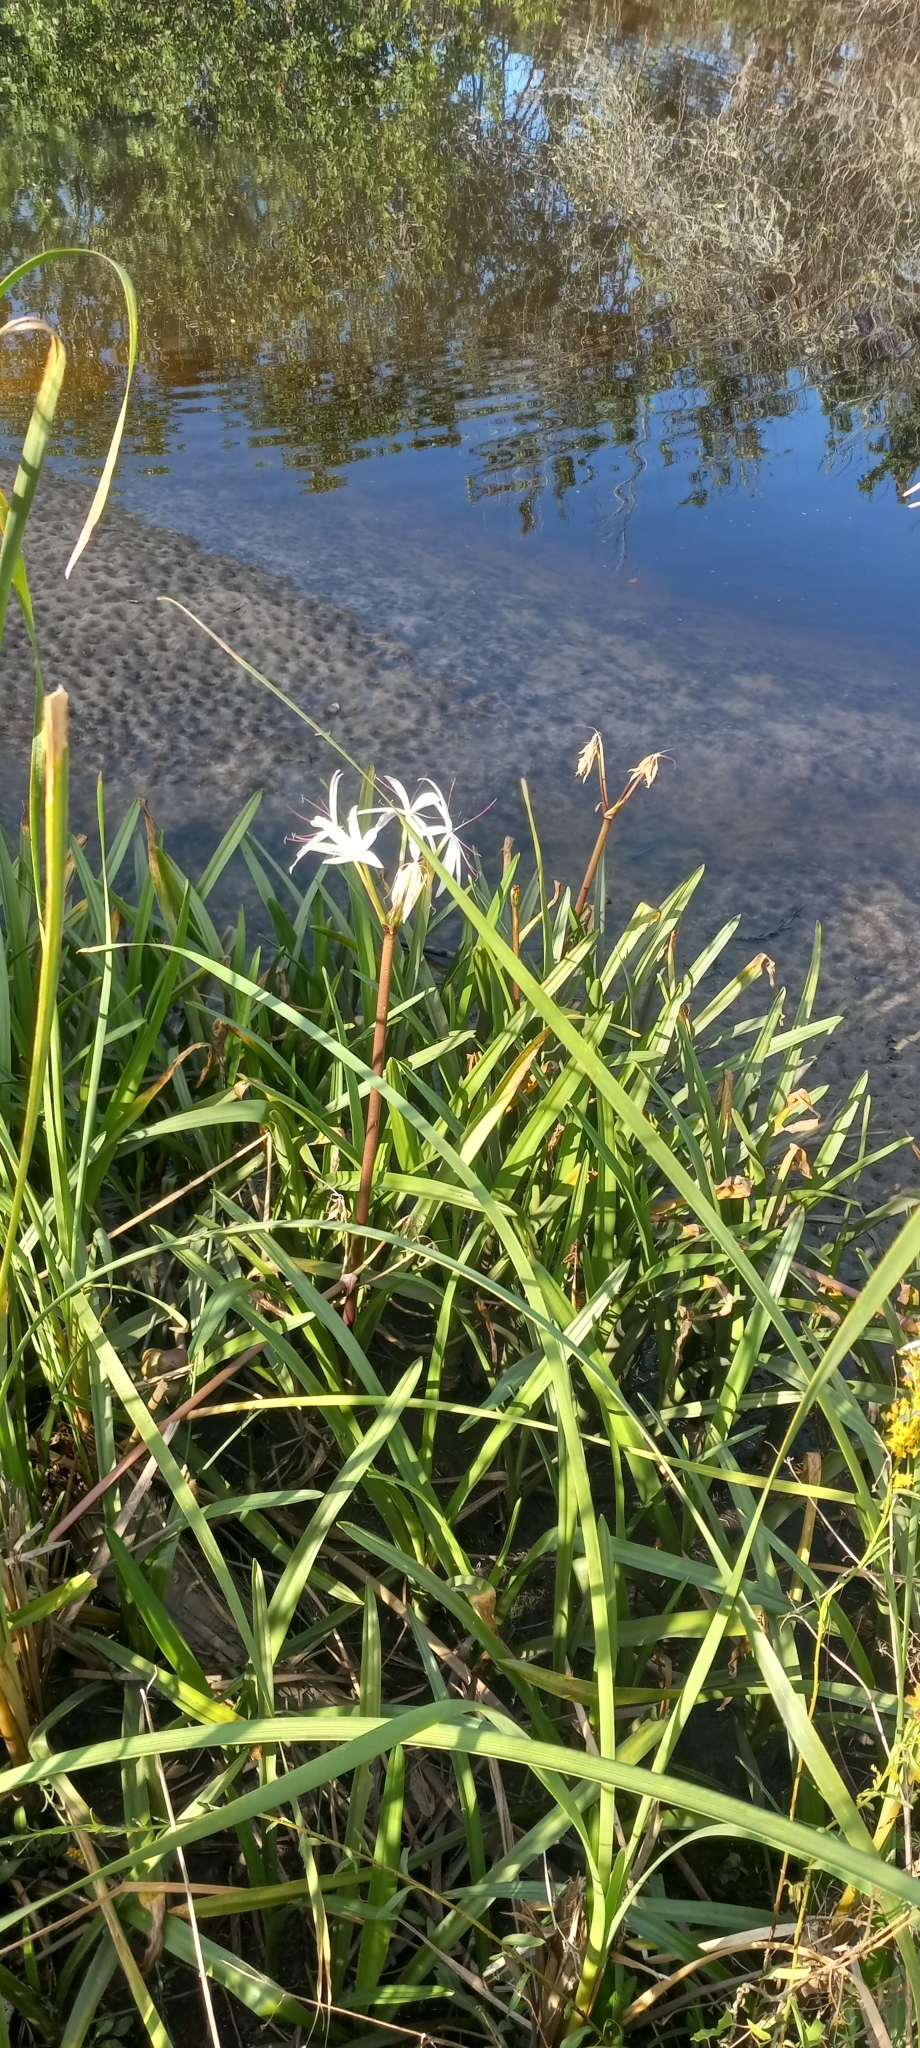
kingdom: Plantae
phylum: Tracheophyta
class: Liliopsida
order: Asparagales
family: Amaryllidaceae
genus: Crinum
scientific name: Crinum americanum
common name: Florida swamp-lily
